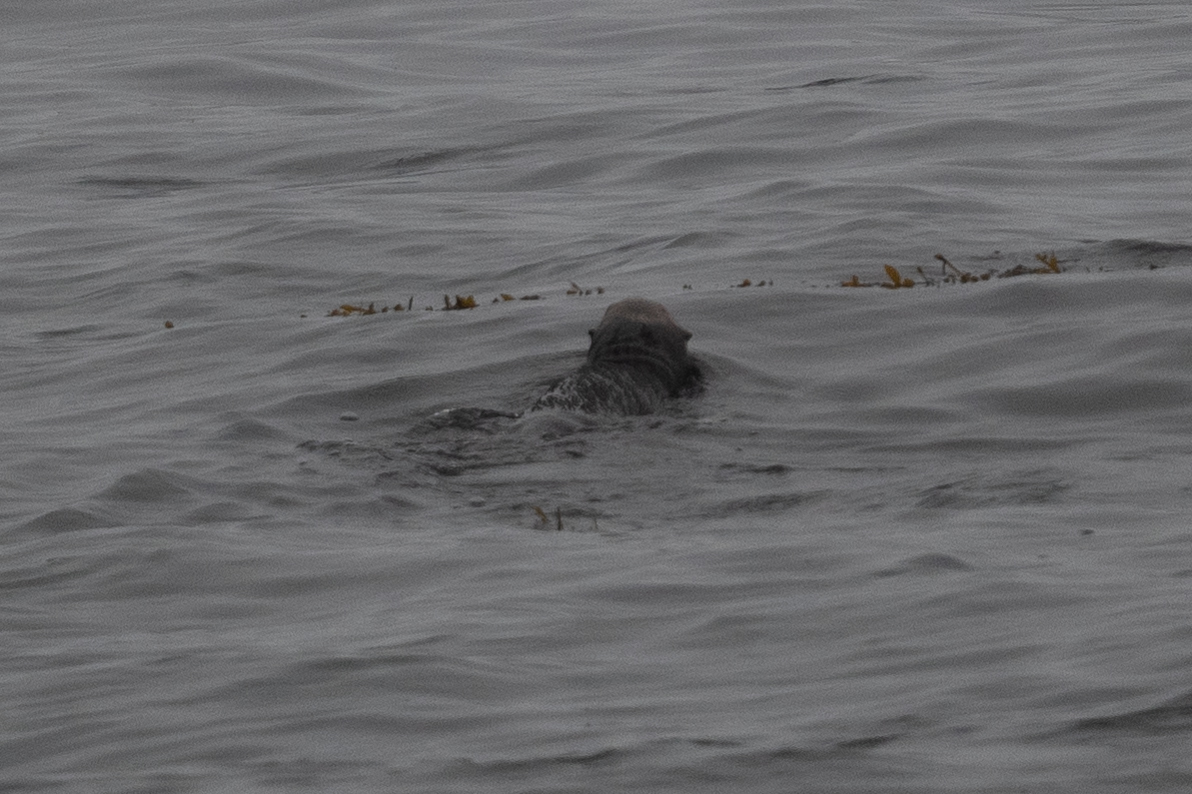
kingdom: Animalia
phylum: Chordata
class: Mammalia
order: Carnivora
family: Mustelidae
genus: Enhydra
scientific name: Enhydra lutris
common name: Sea otter
